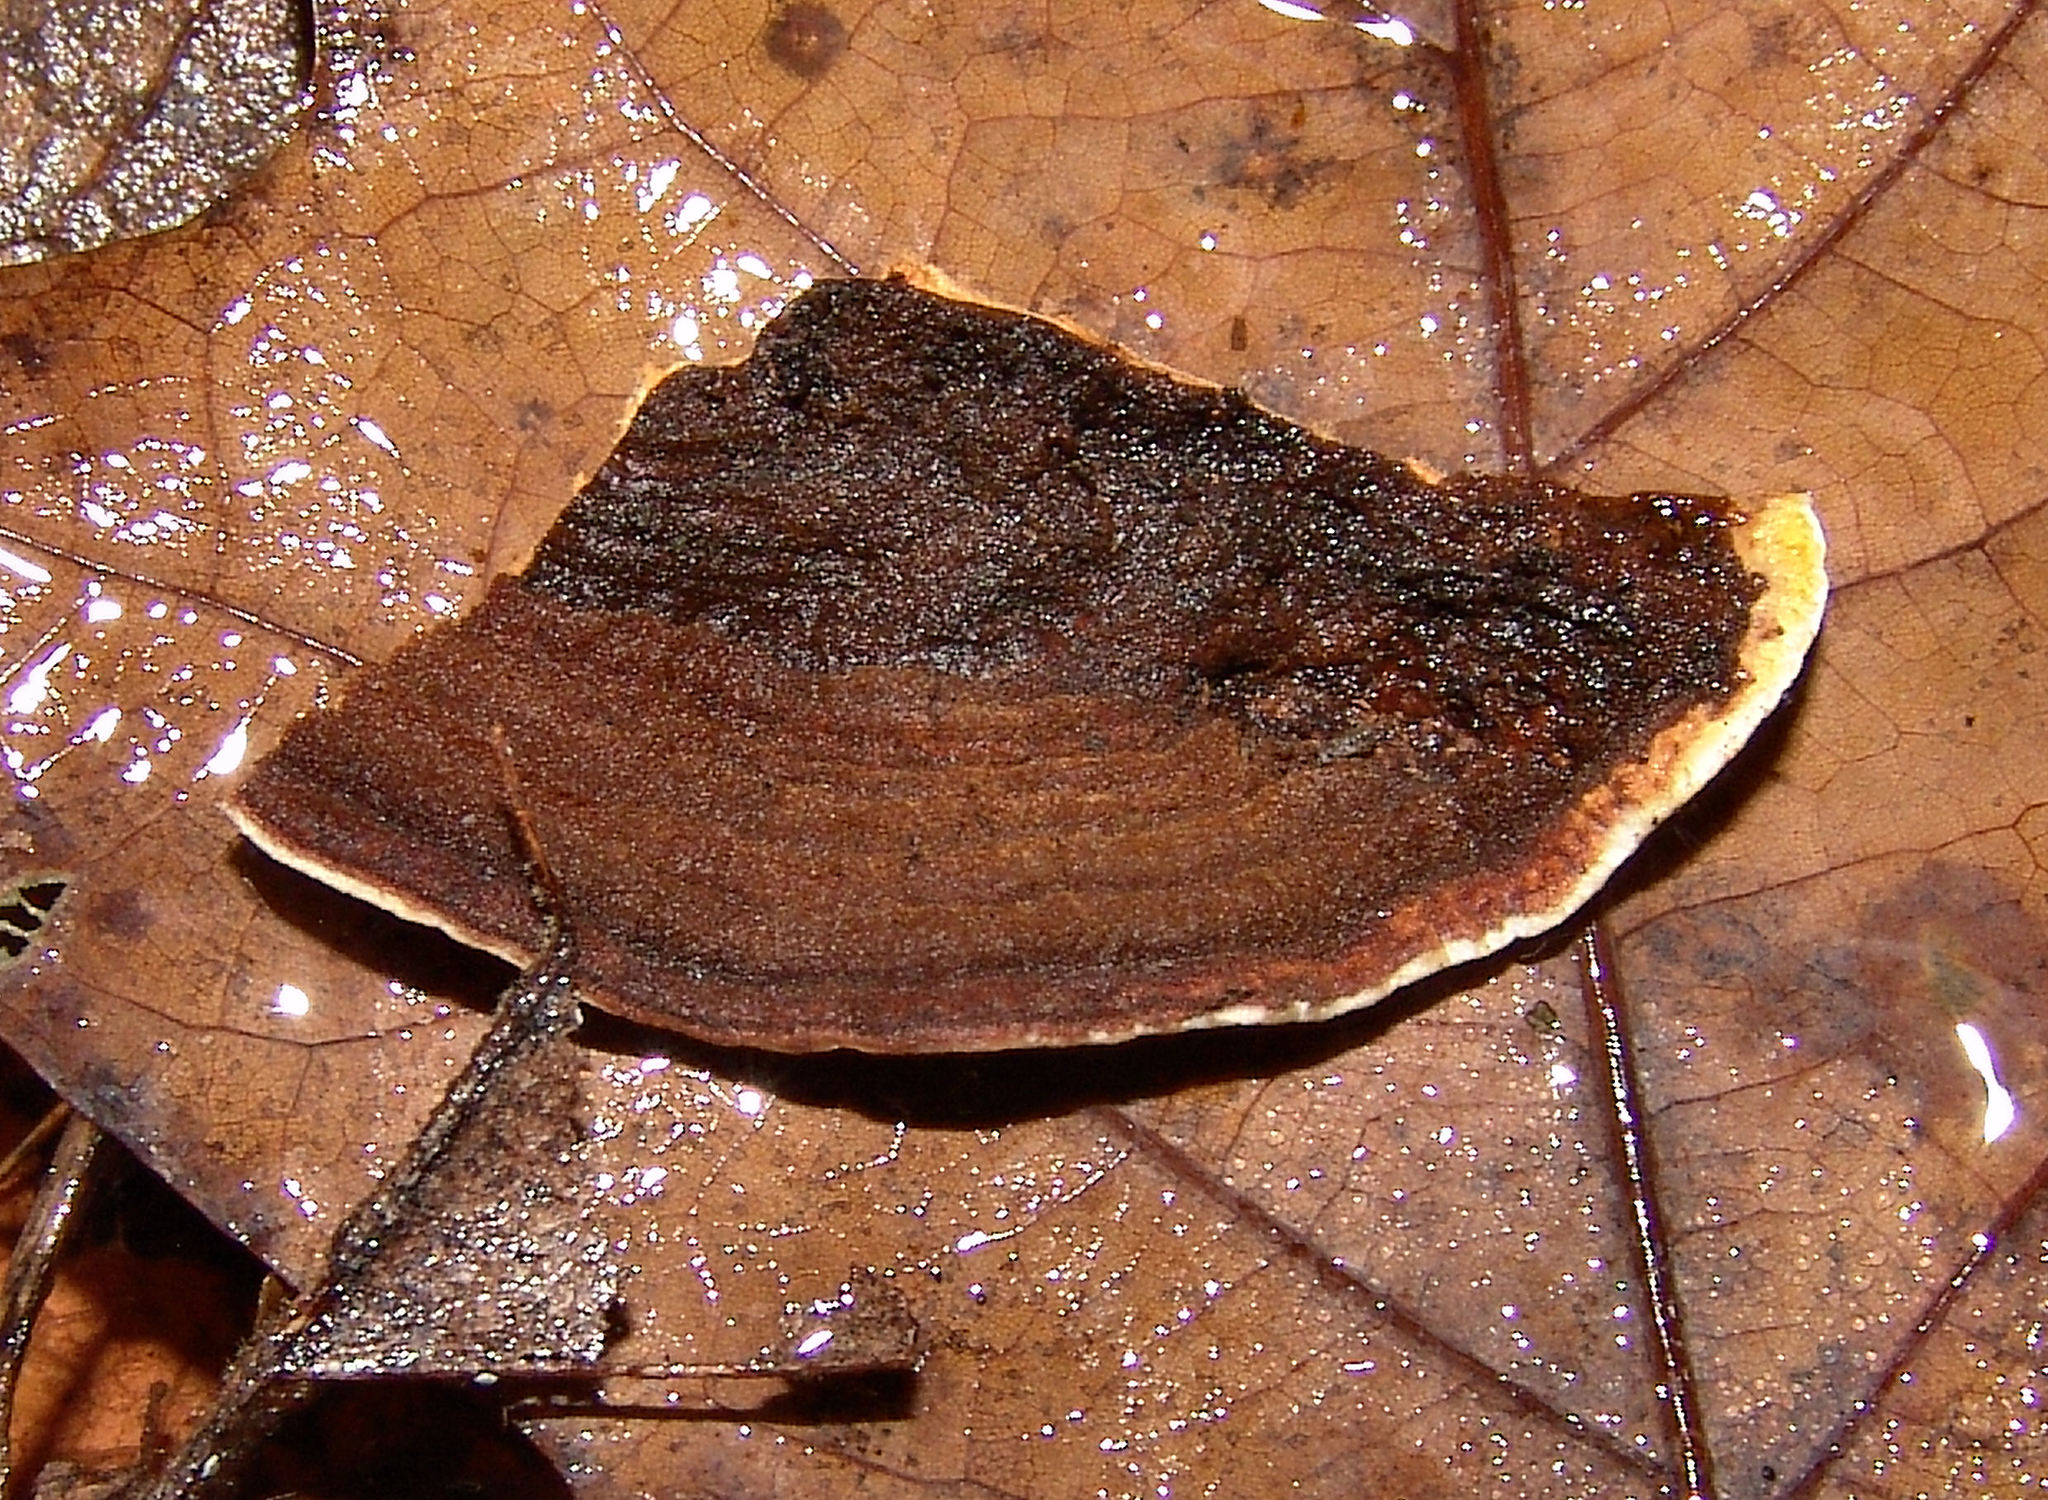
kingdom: Fungi
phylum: Basidiomycota
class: Agaricomycetes
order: Russulales
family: Stereaceae
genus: Xylobolus
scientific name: Xylobolus subpileatus
